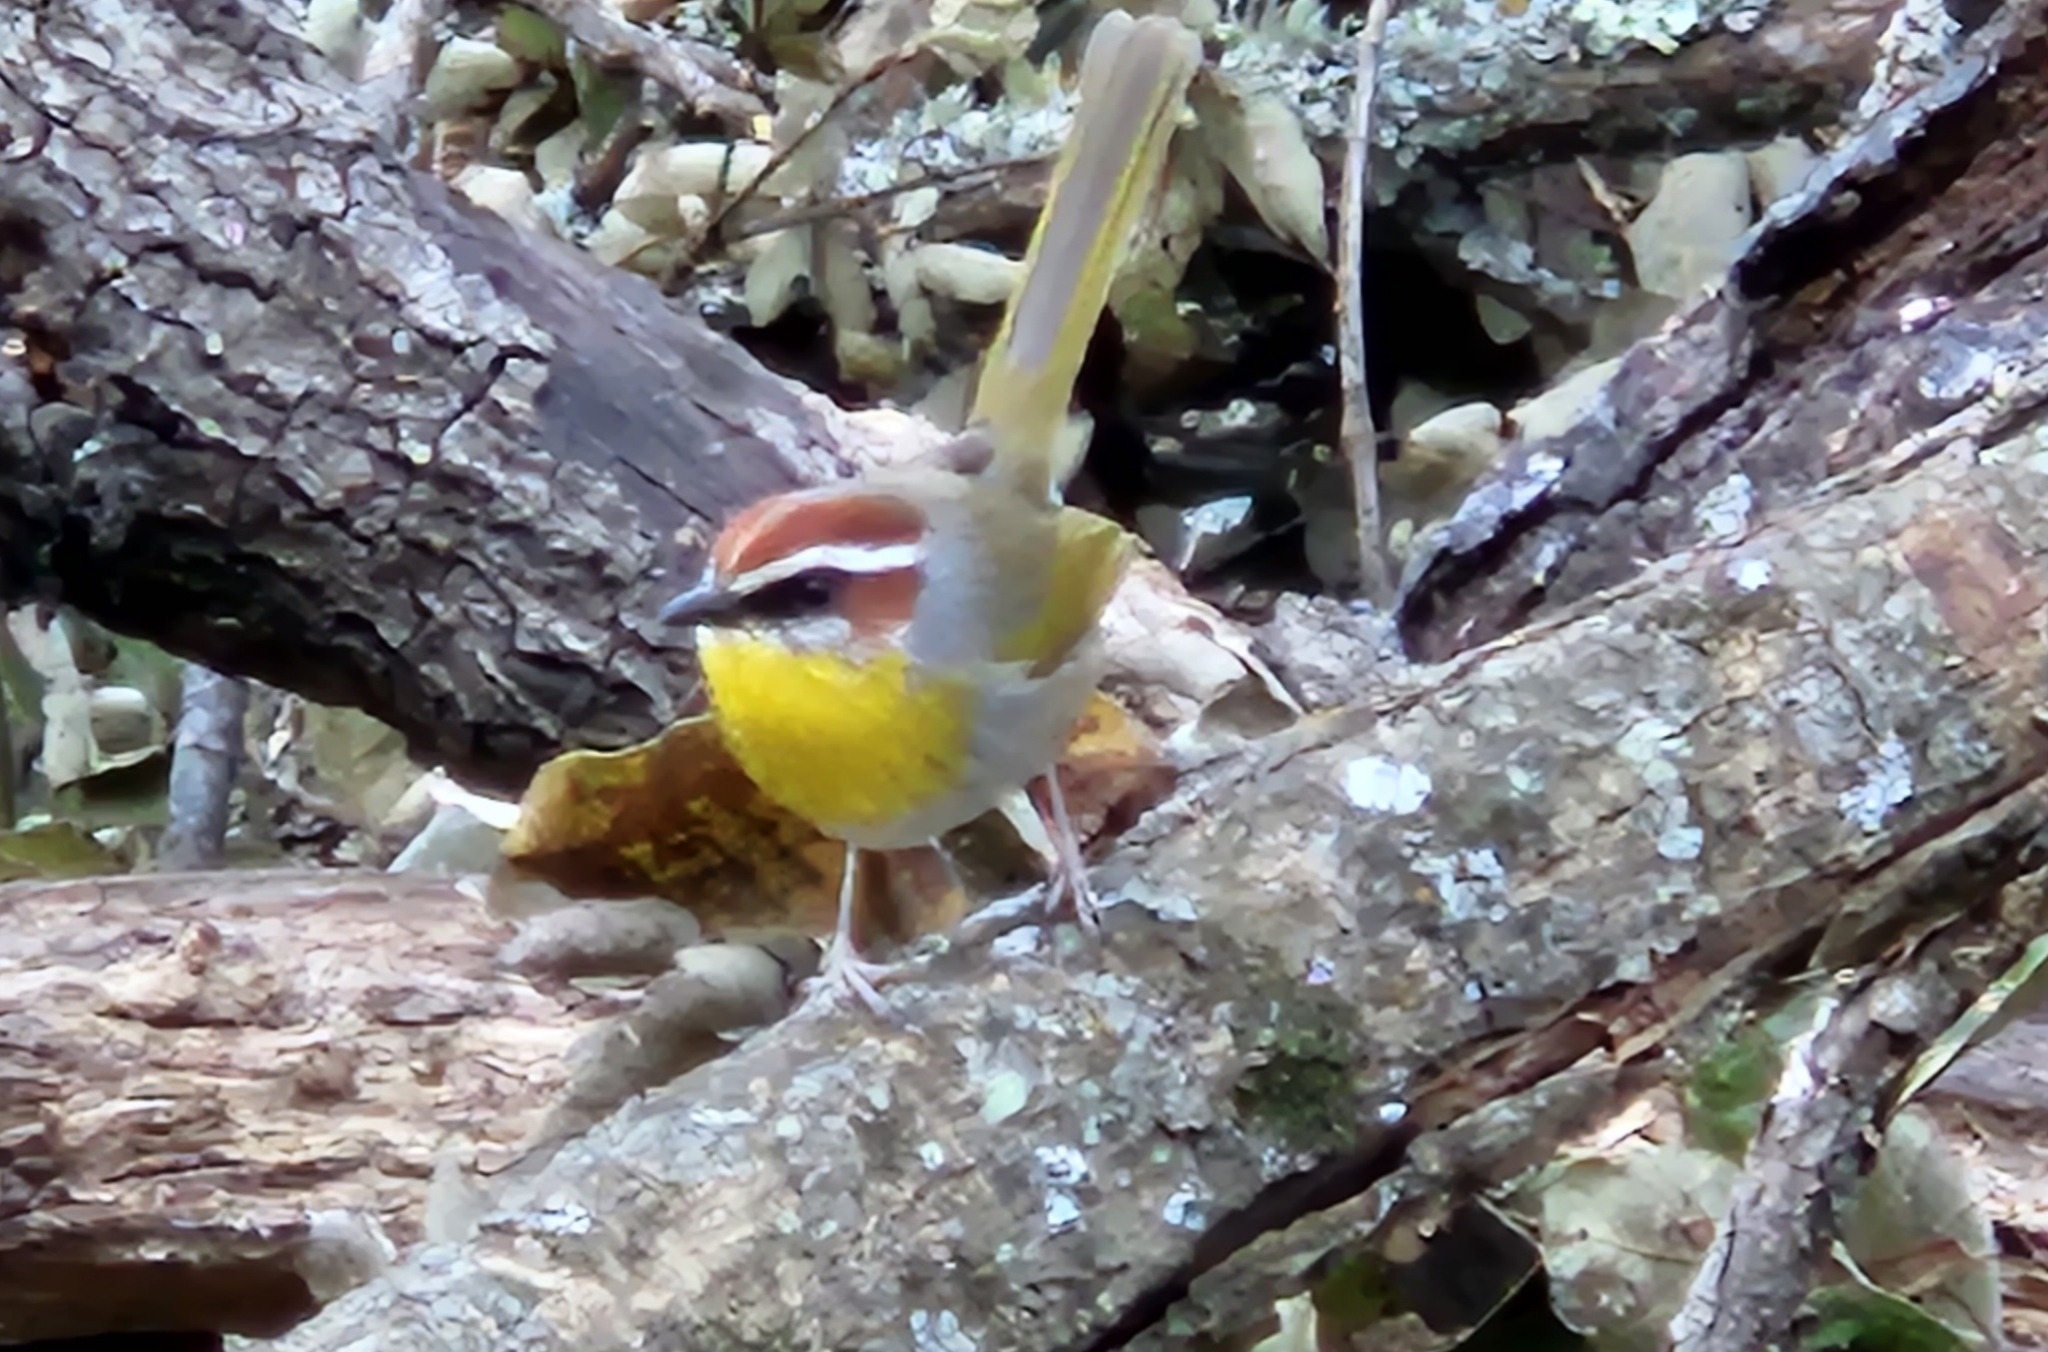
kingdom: Animalia
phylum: Chordata
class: Aves
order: Passeriformes
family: Parulidae
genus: Basileuterus
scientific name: Basileuterus rufifrons
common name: Rufous-capped warbler
